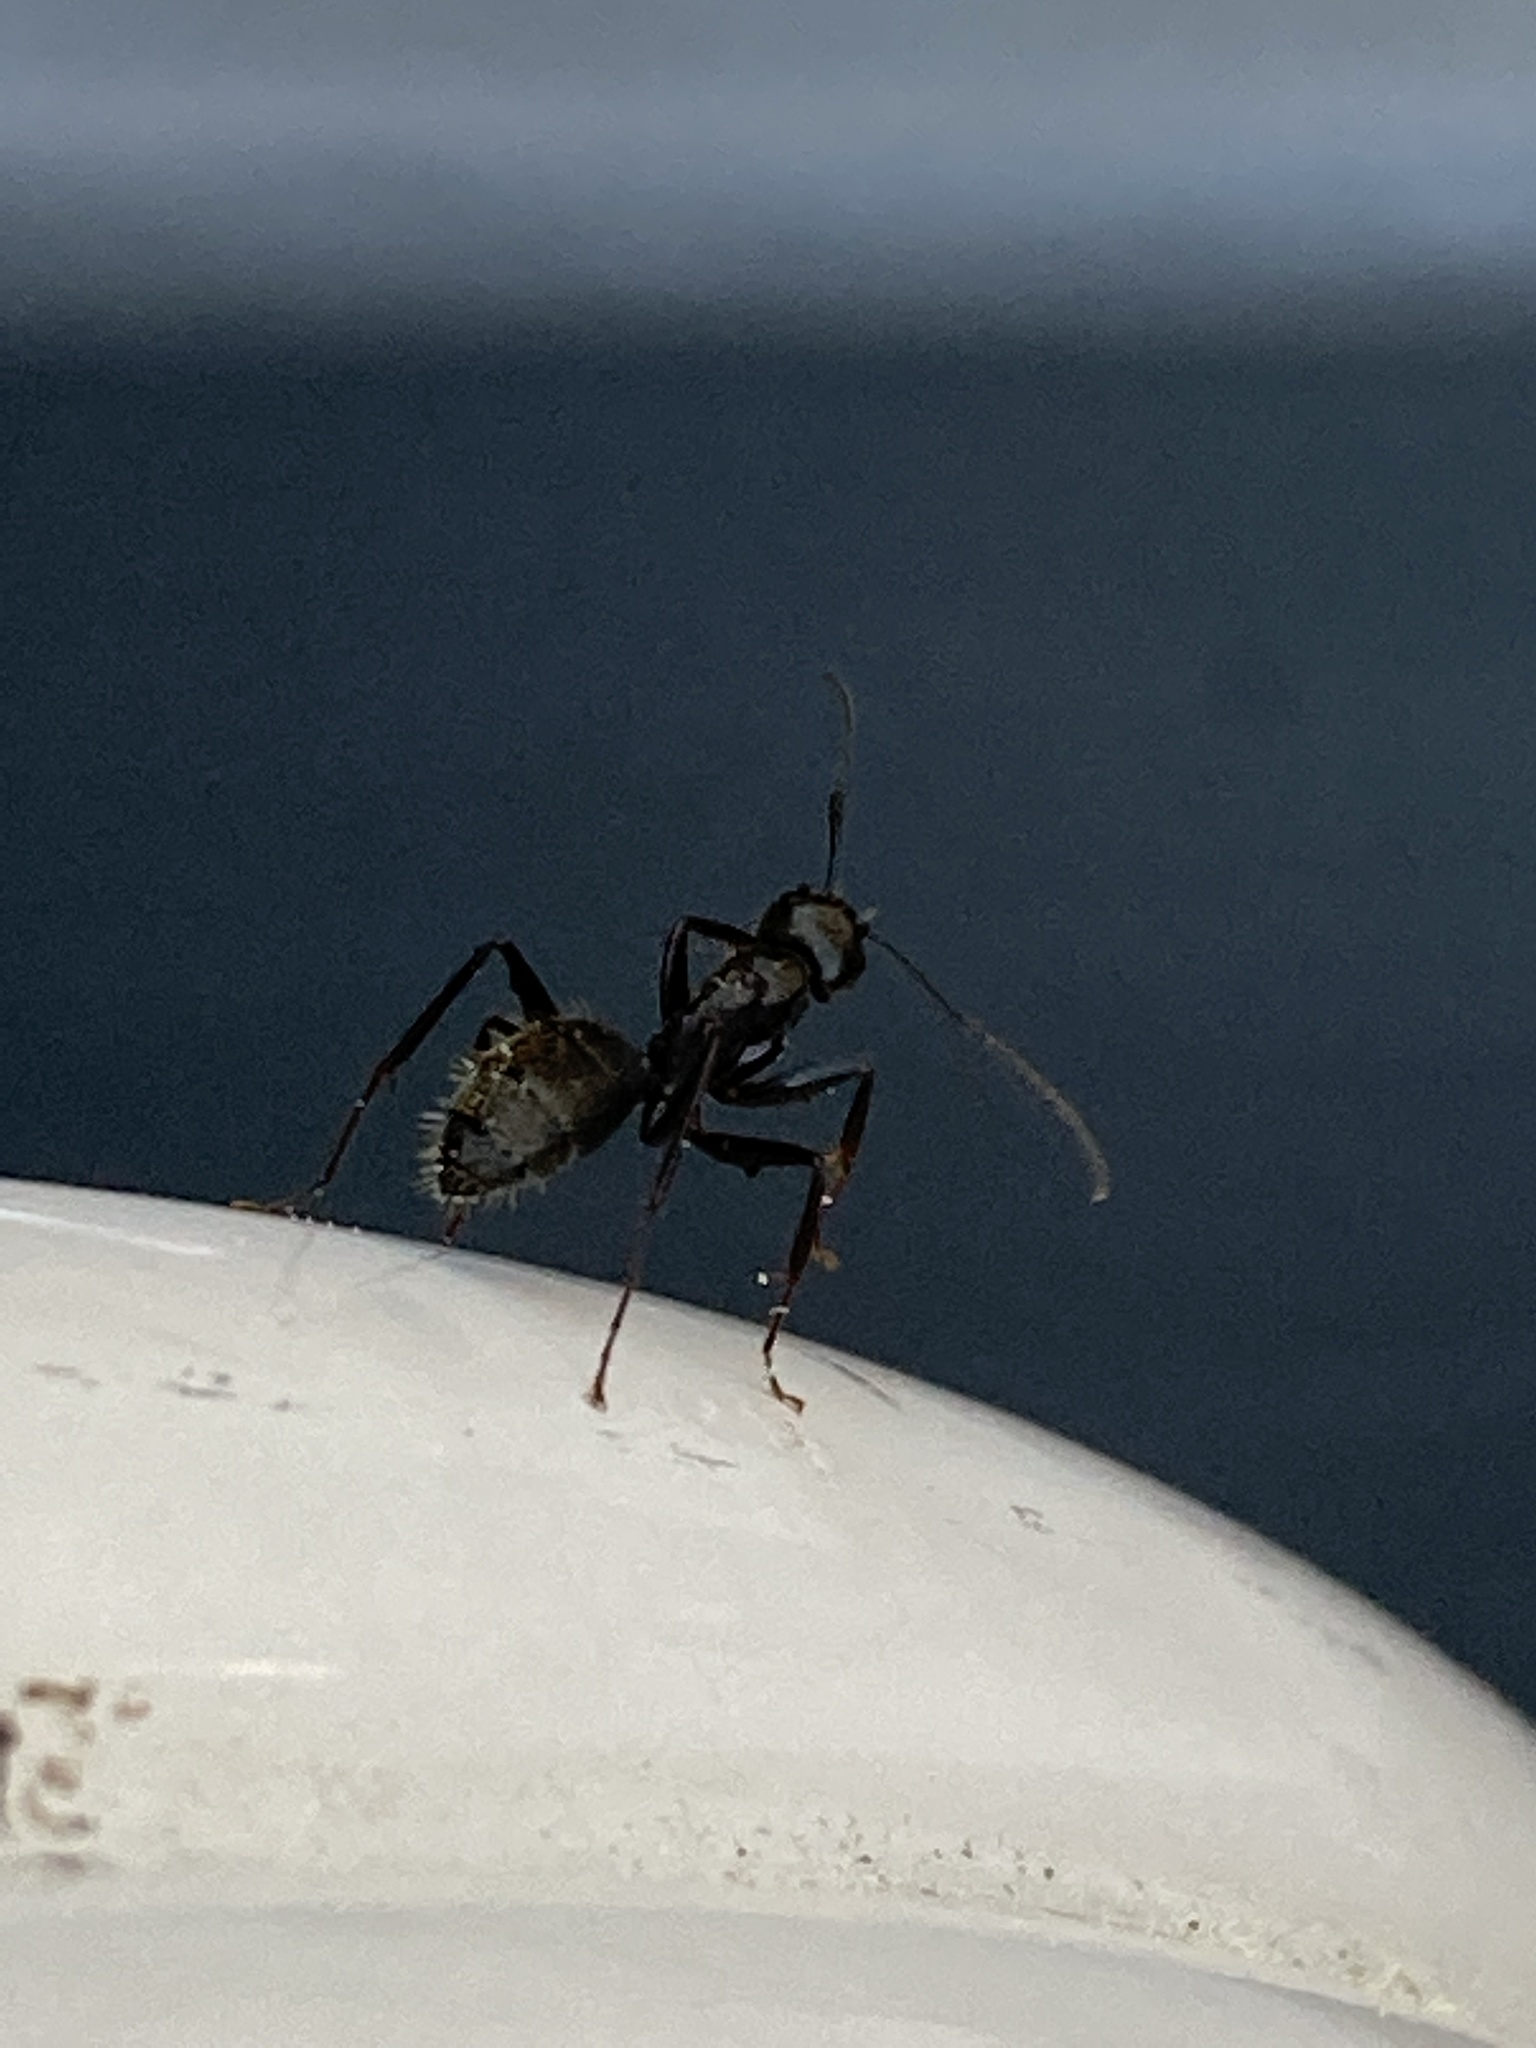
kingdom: Animalia
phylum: Arthropoda
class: Insecta
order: Hymenoptera
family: Formicidae
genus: Camponotus
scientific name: Camponotus pennsylvanicus
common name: Black carpenter ant
